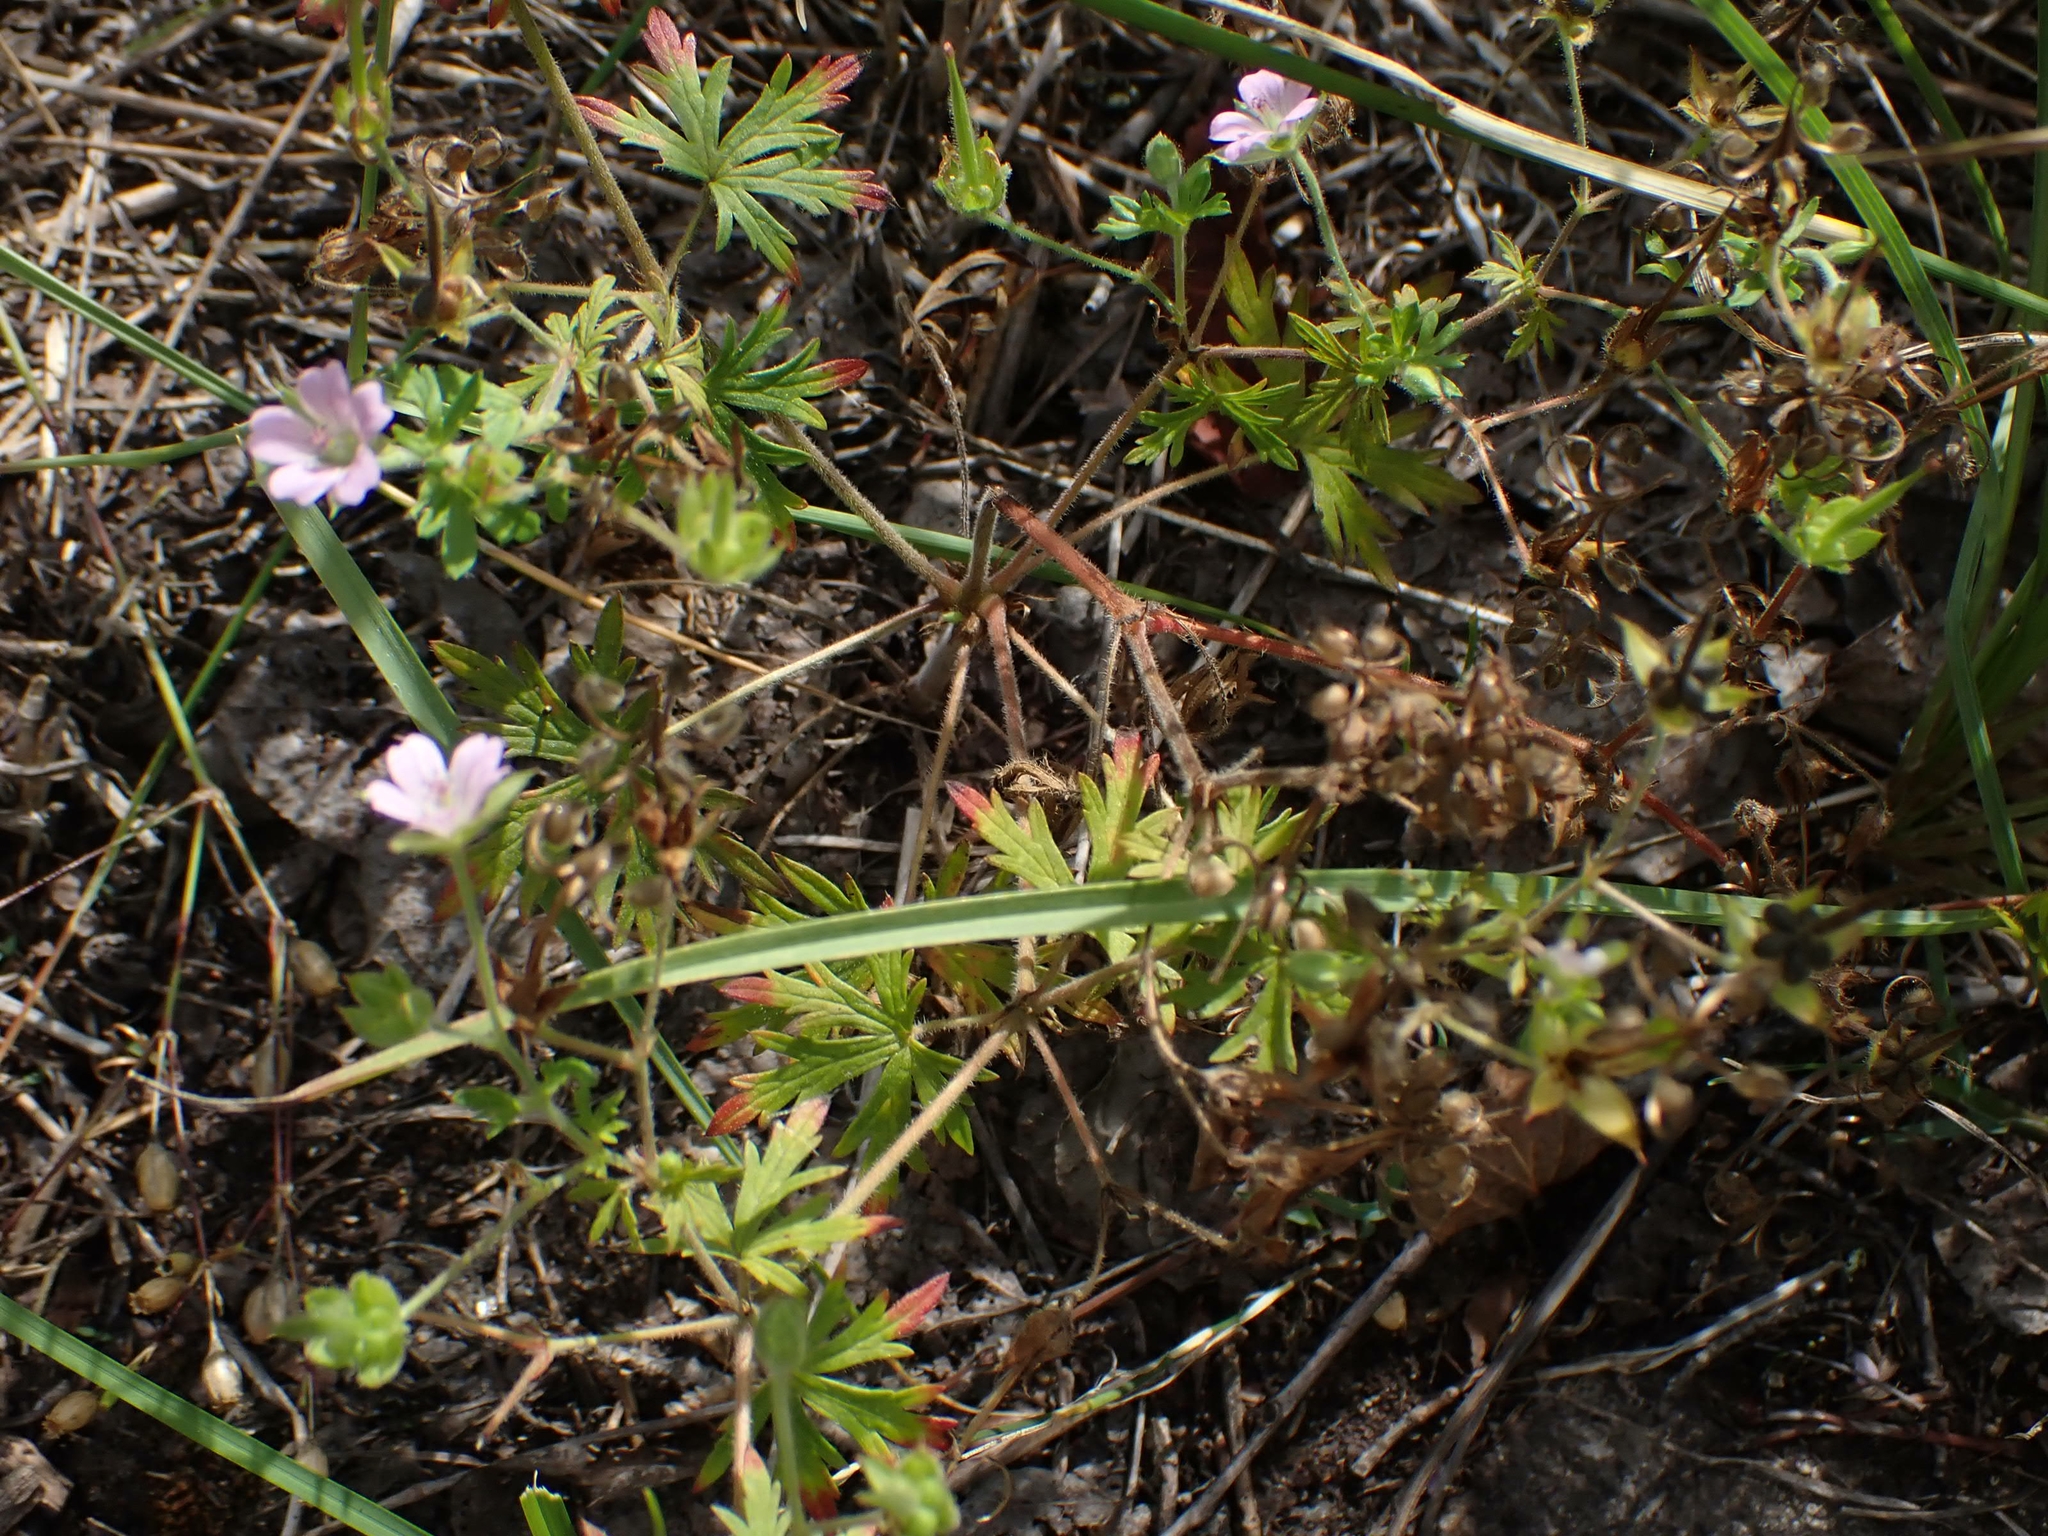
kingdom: Plantae
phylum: Tracheophyta
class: Magnoliopsida
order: Geraniales
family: Geraniaceae
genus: Geranium
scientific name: Geranium bicknellii
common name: Bicknell's cranesbill
